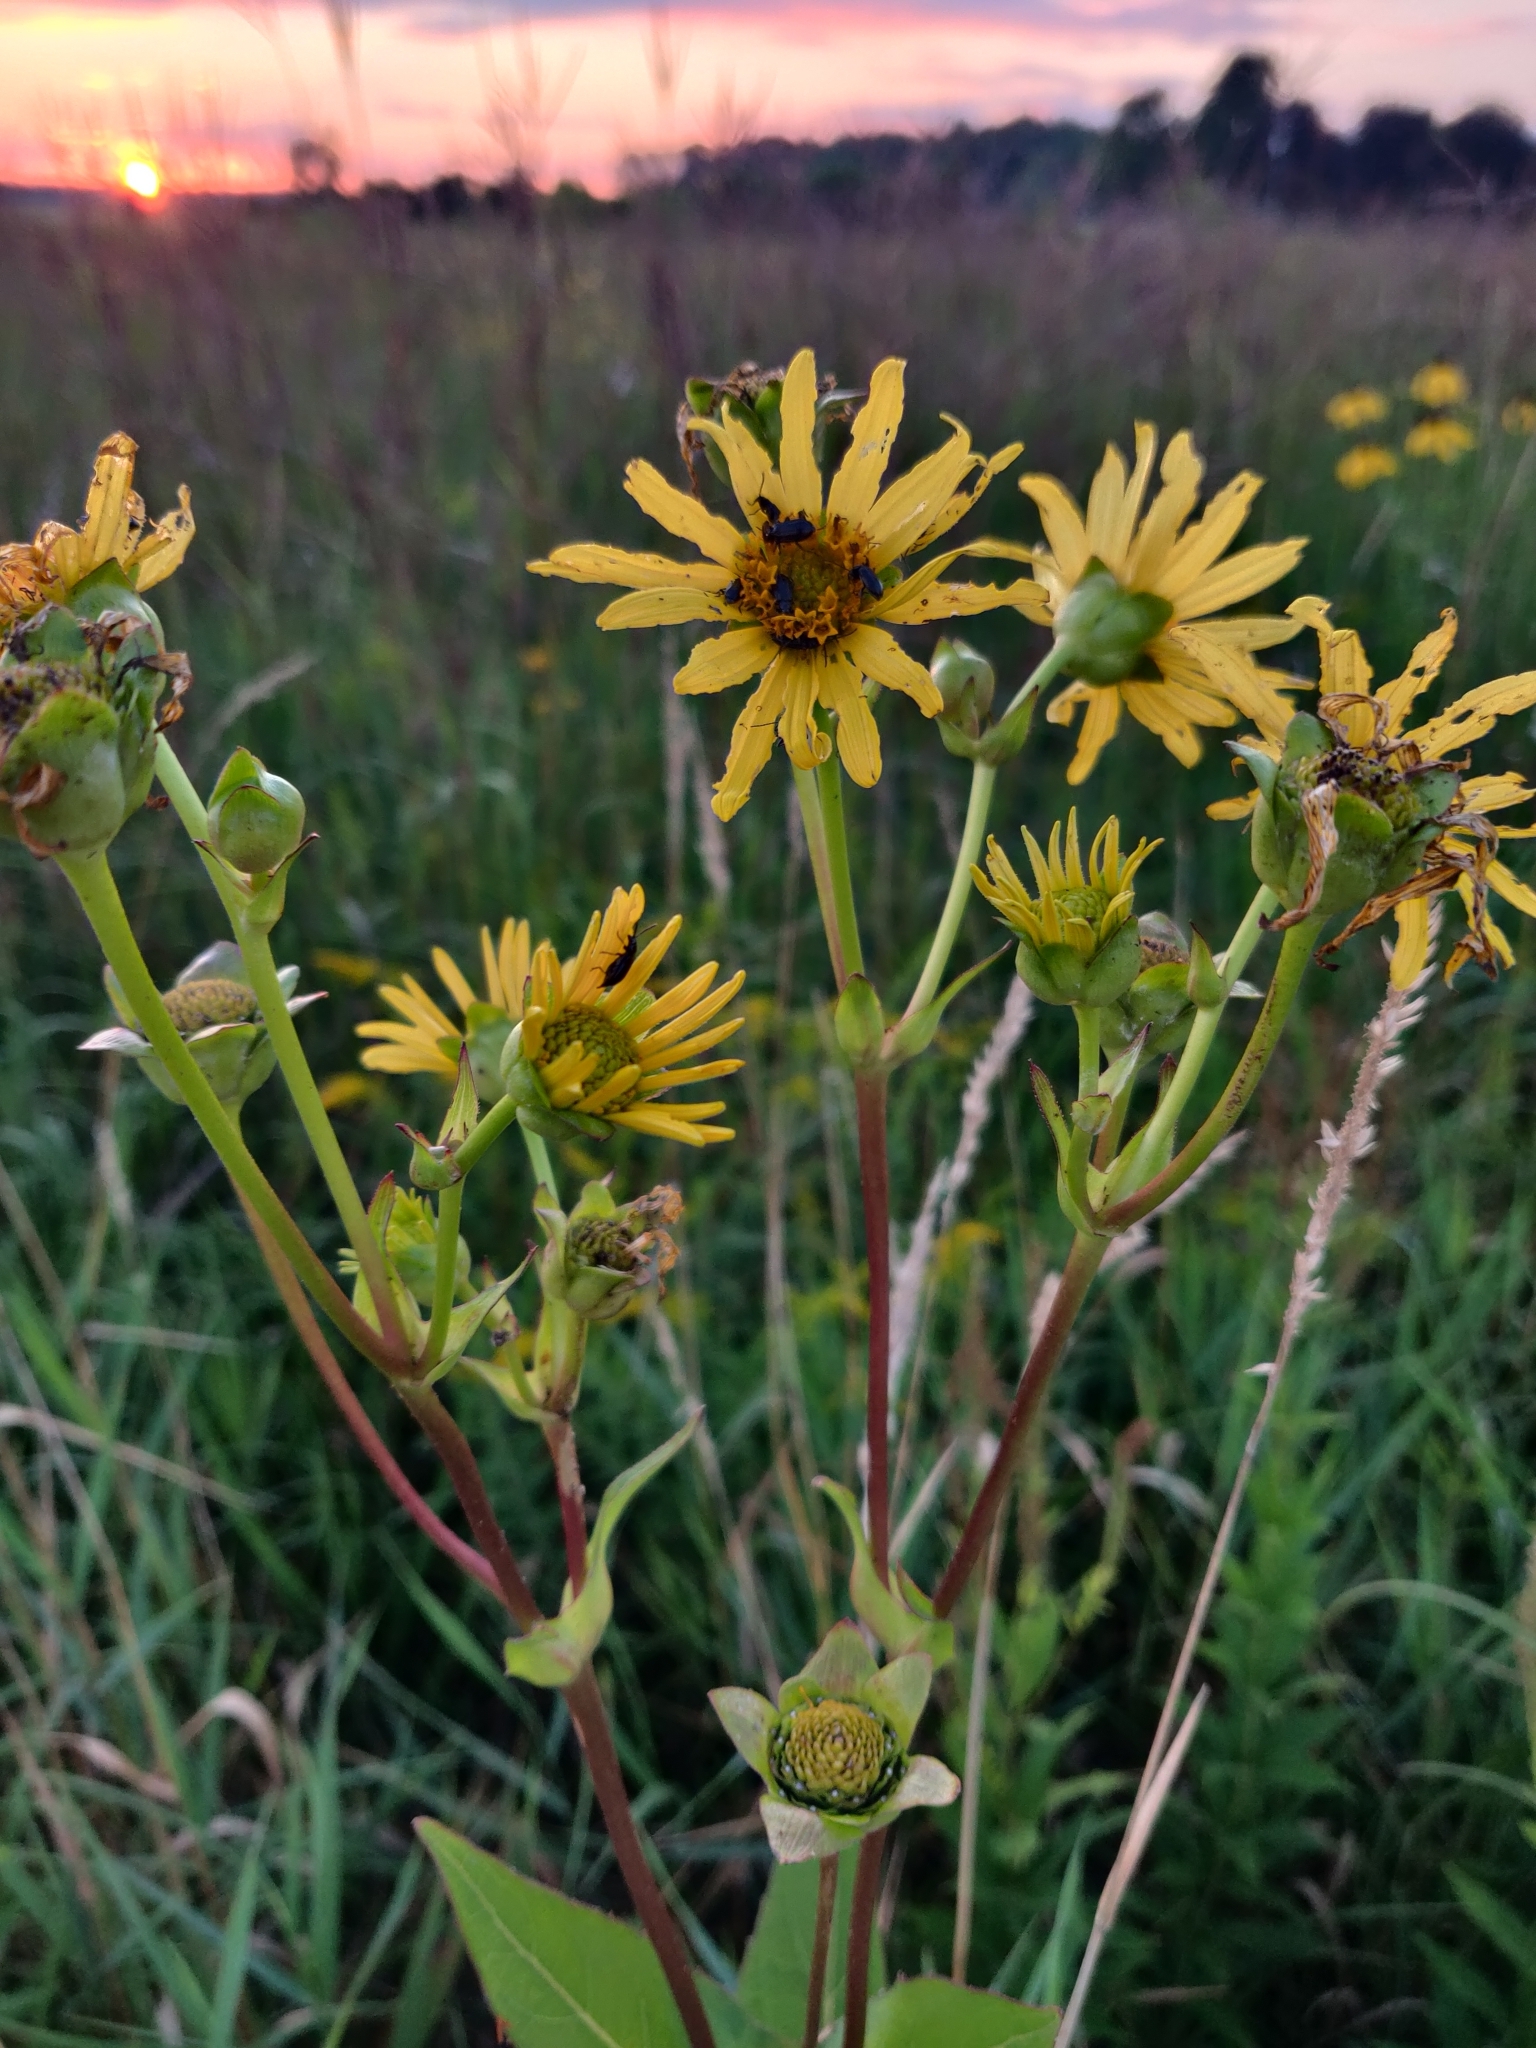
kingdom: Plantae
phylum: Tracheophyta
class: Magnoliopsida
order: Asterales
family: Asteraceae
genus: Silphium
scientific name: Silphium perfoliatum
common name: Cup-plant
